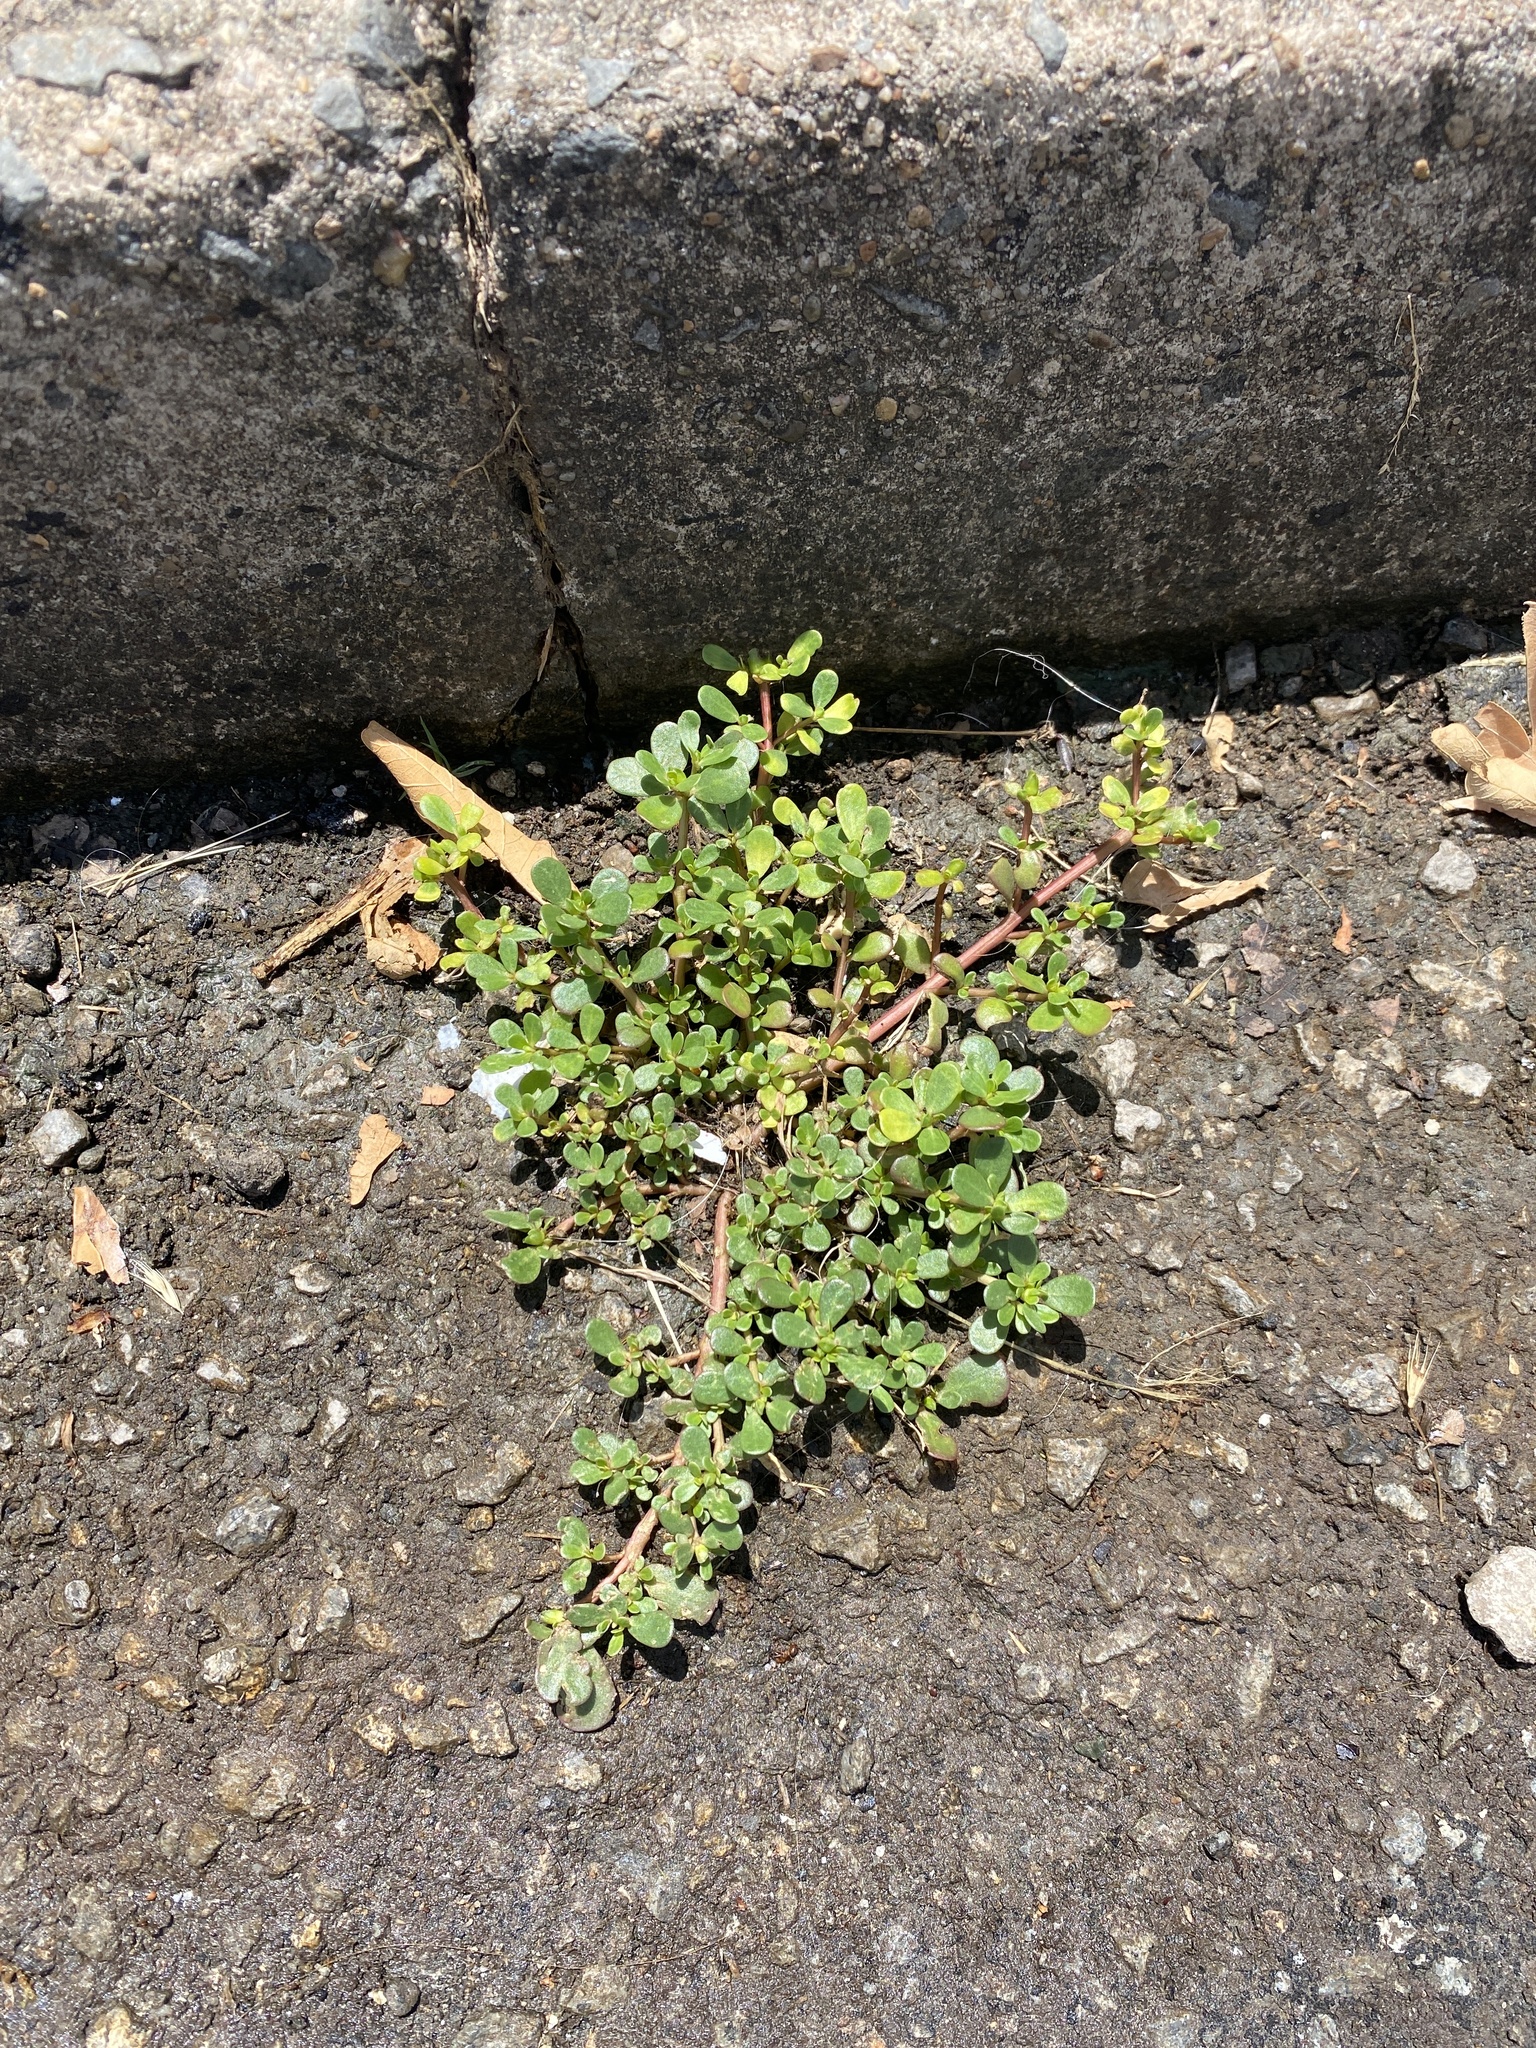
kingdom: Plantae
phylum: Tracheophyta
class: Magnoliopsida
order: Caryophyllales
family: Portulacaceae
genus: Portulaca
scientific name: Portulaca oleracea
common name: Common purslane
